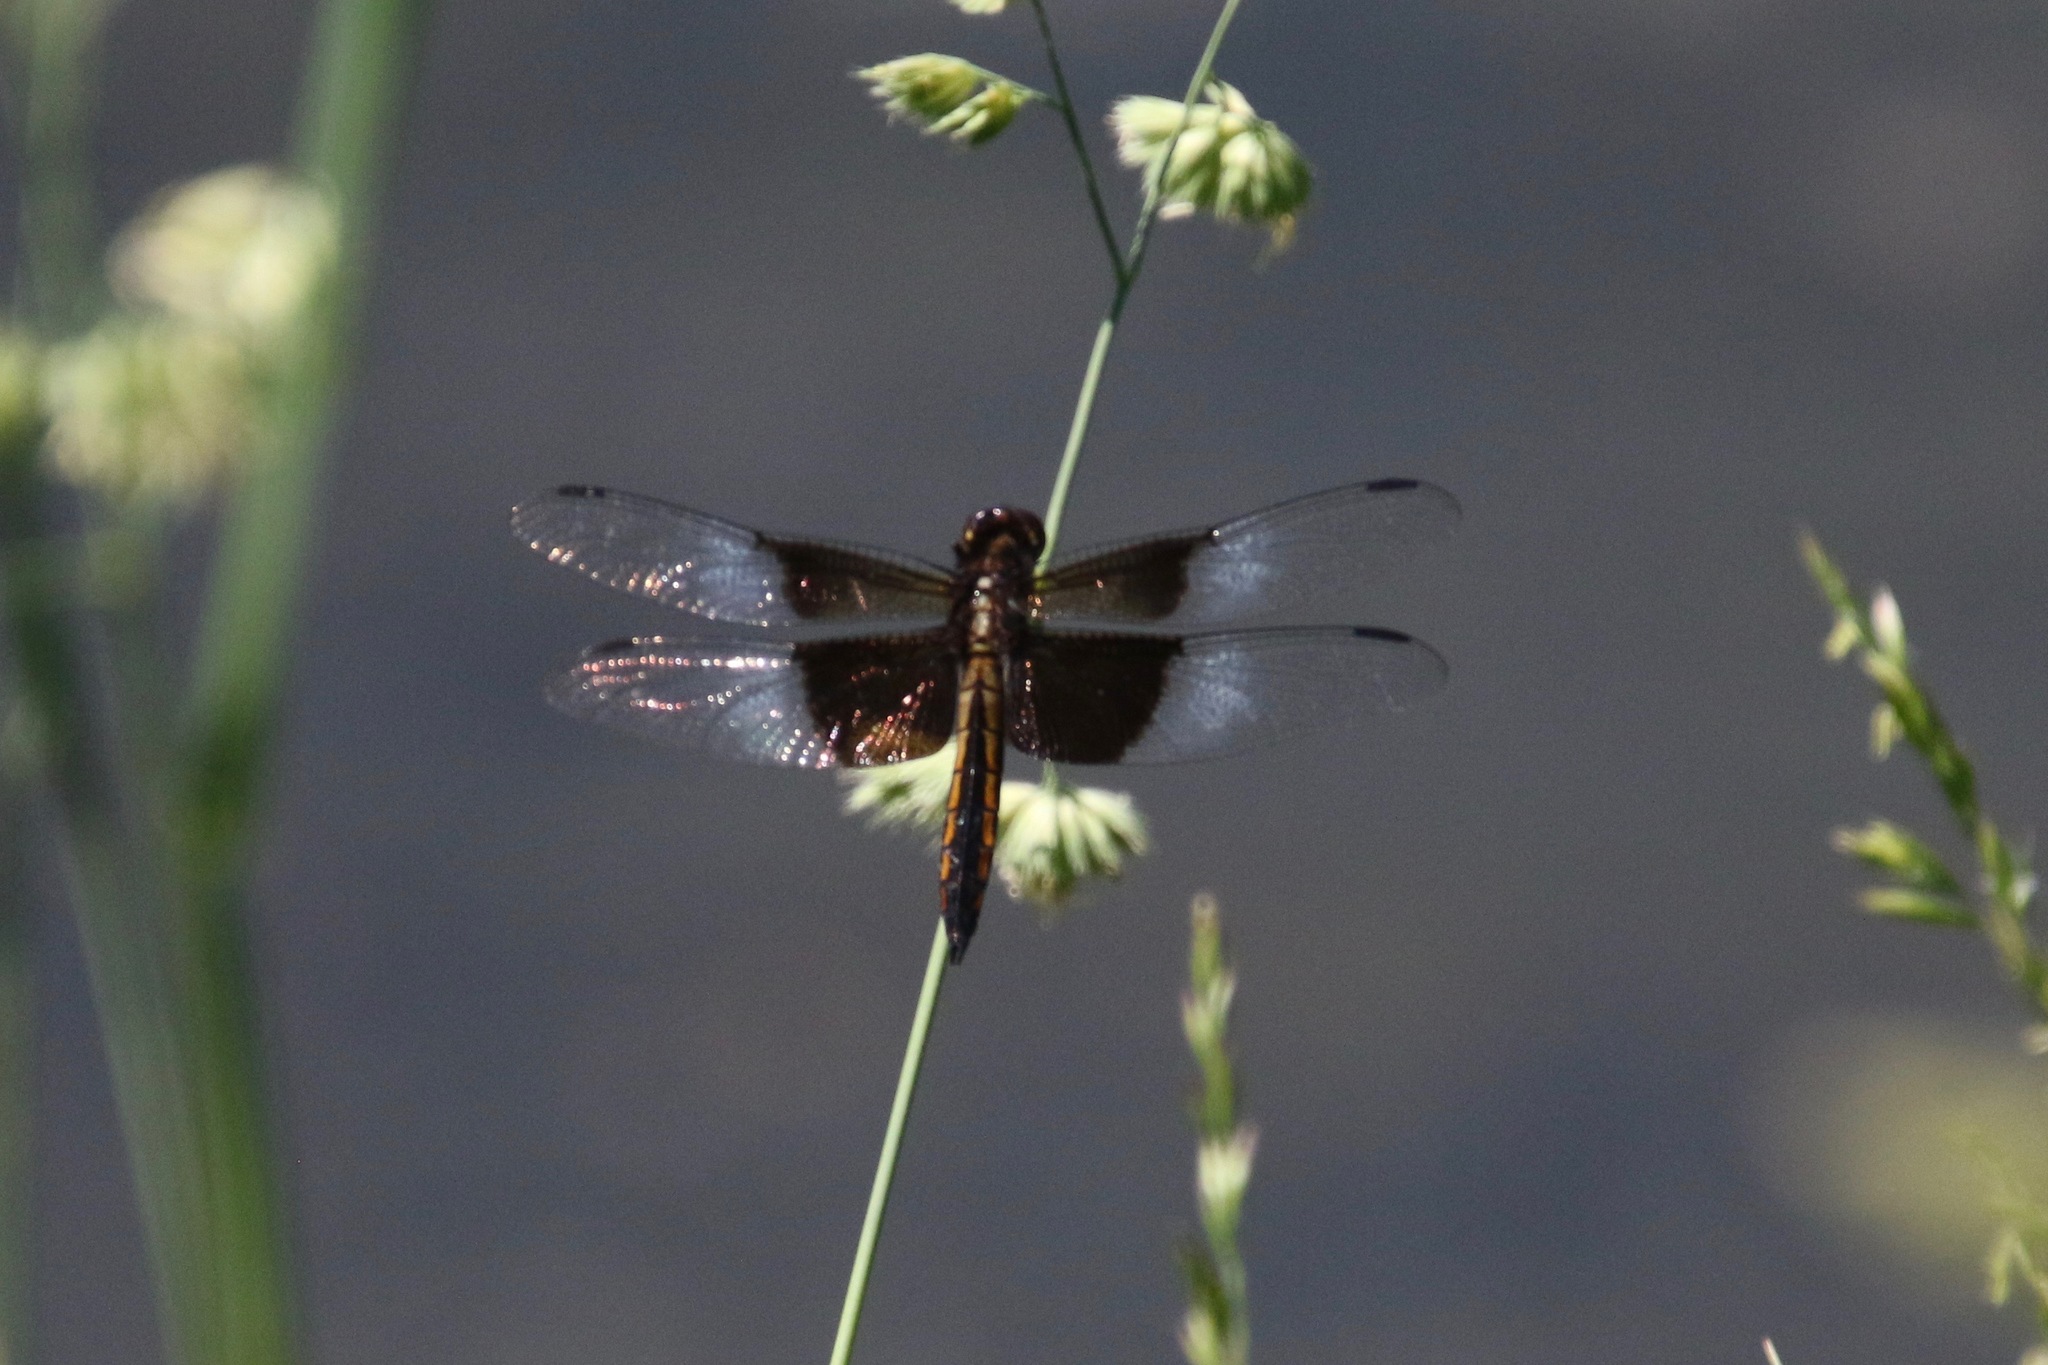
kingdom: Animalia
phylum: Arthropoda
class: Insecta
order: Odonata
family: Libellulidae
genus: Libellula
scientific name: Libellula luctuosa
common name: Widow skimmer
